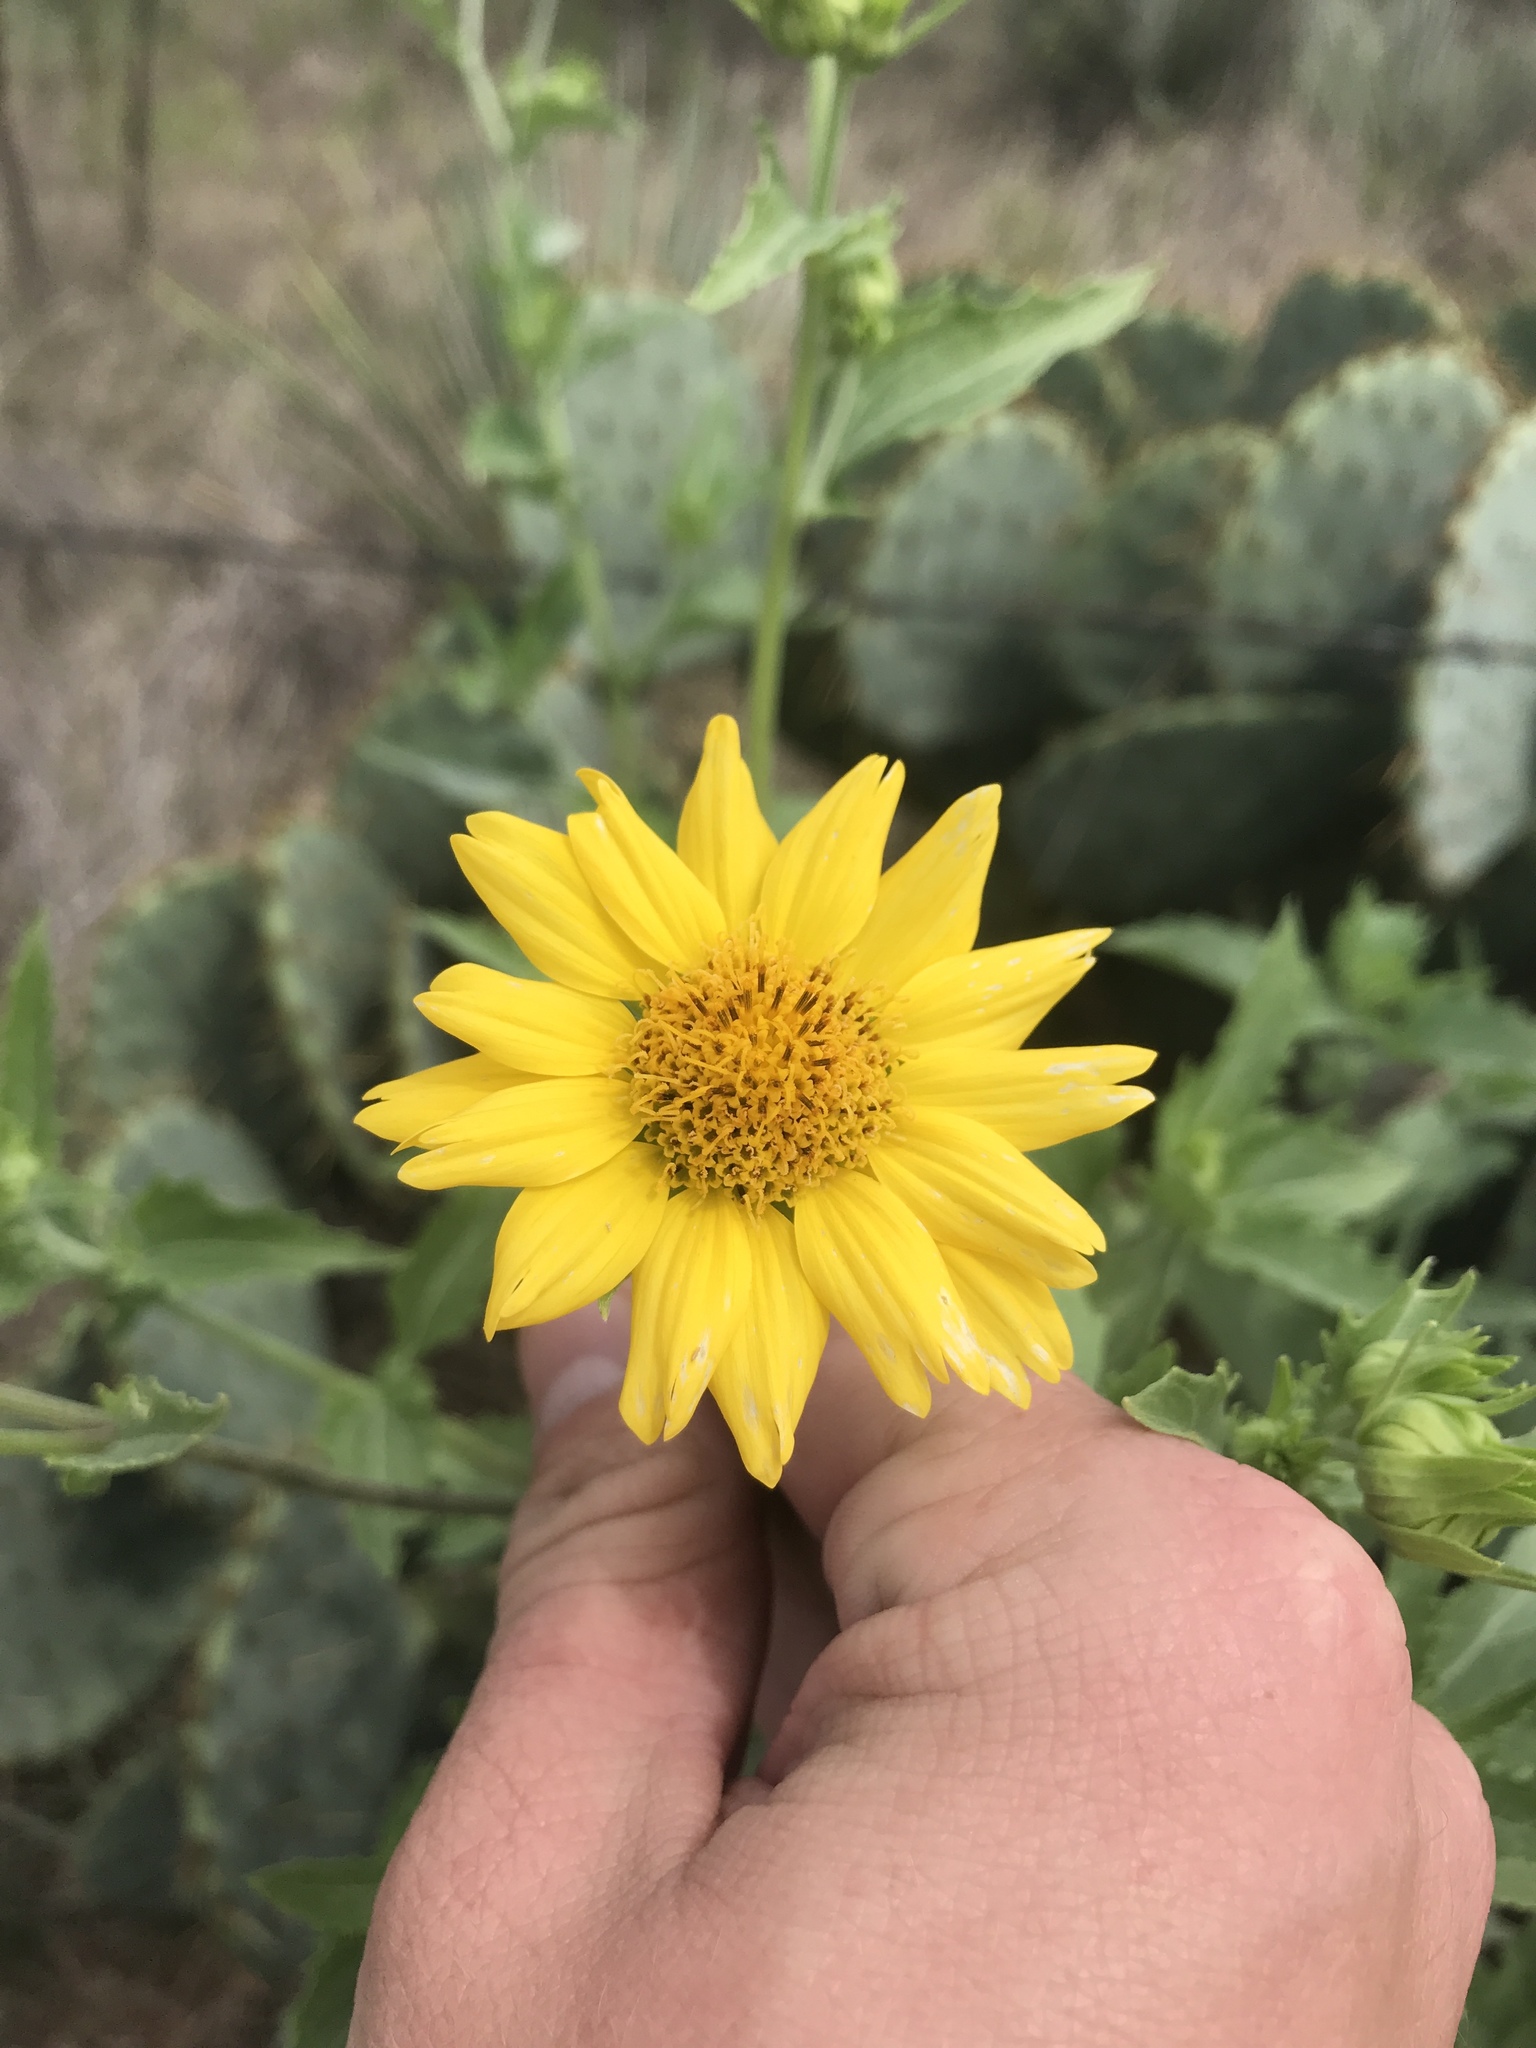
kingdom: Plantae
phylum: Tracheophyta
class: Magnoliopsida
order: Asterales
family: Asteraceae
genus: Verbesina
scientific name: Verbesina encelioides
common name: Golden crownbeard
